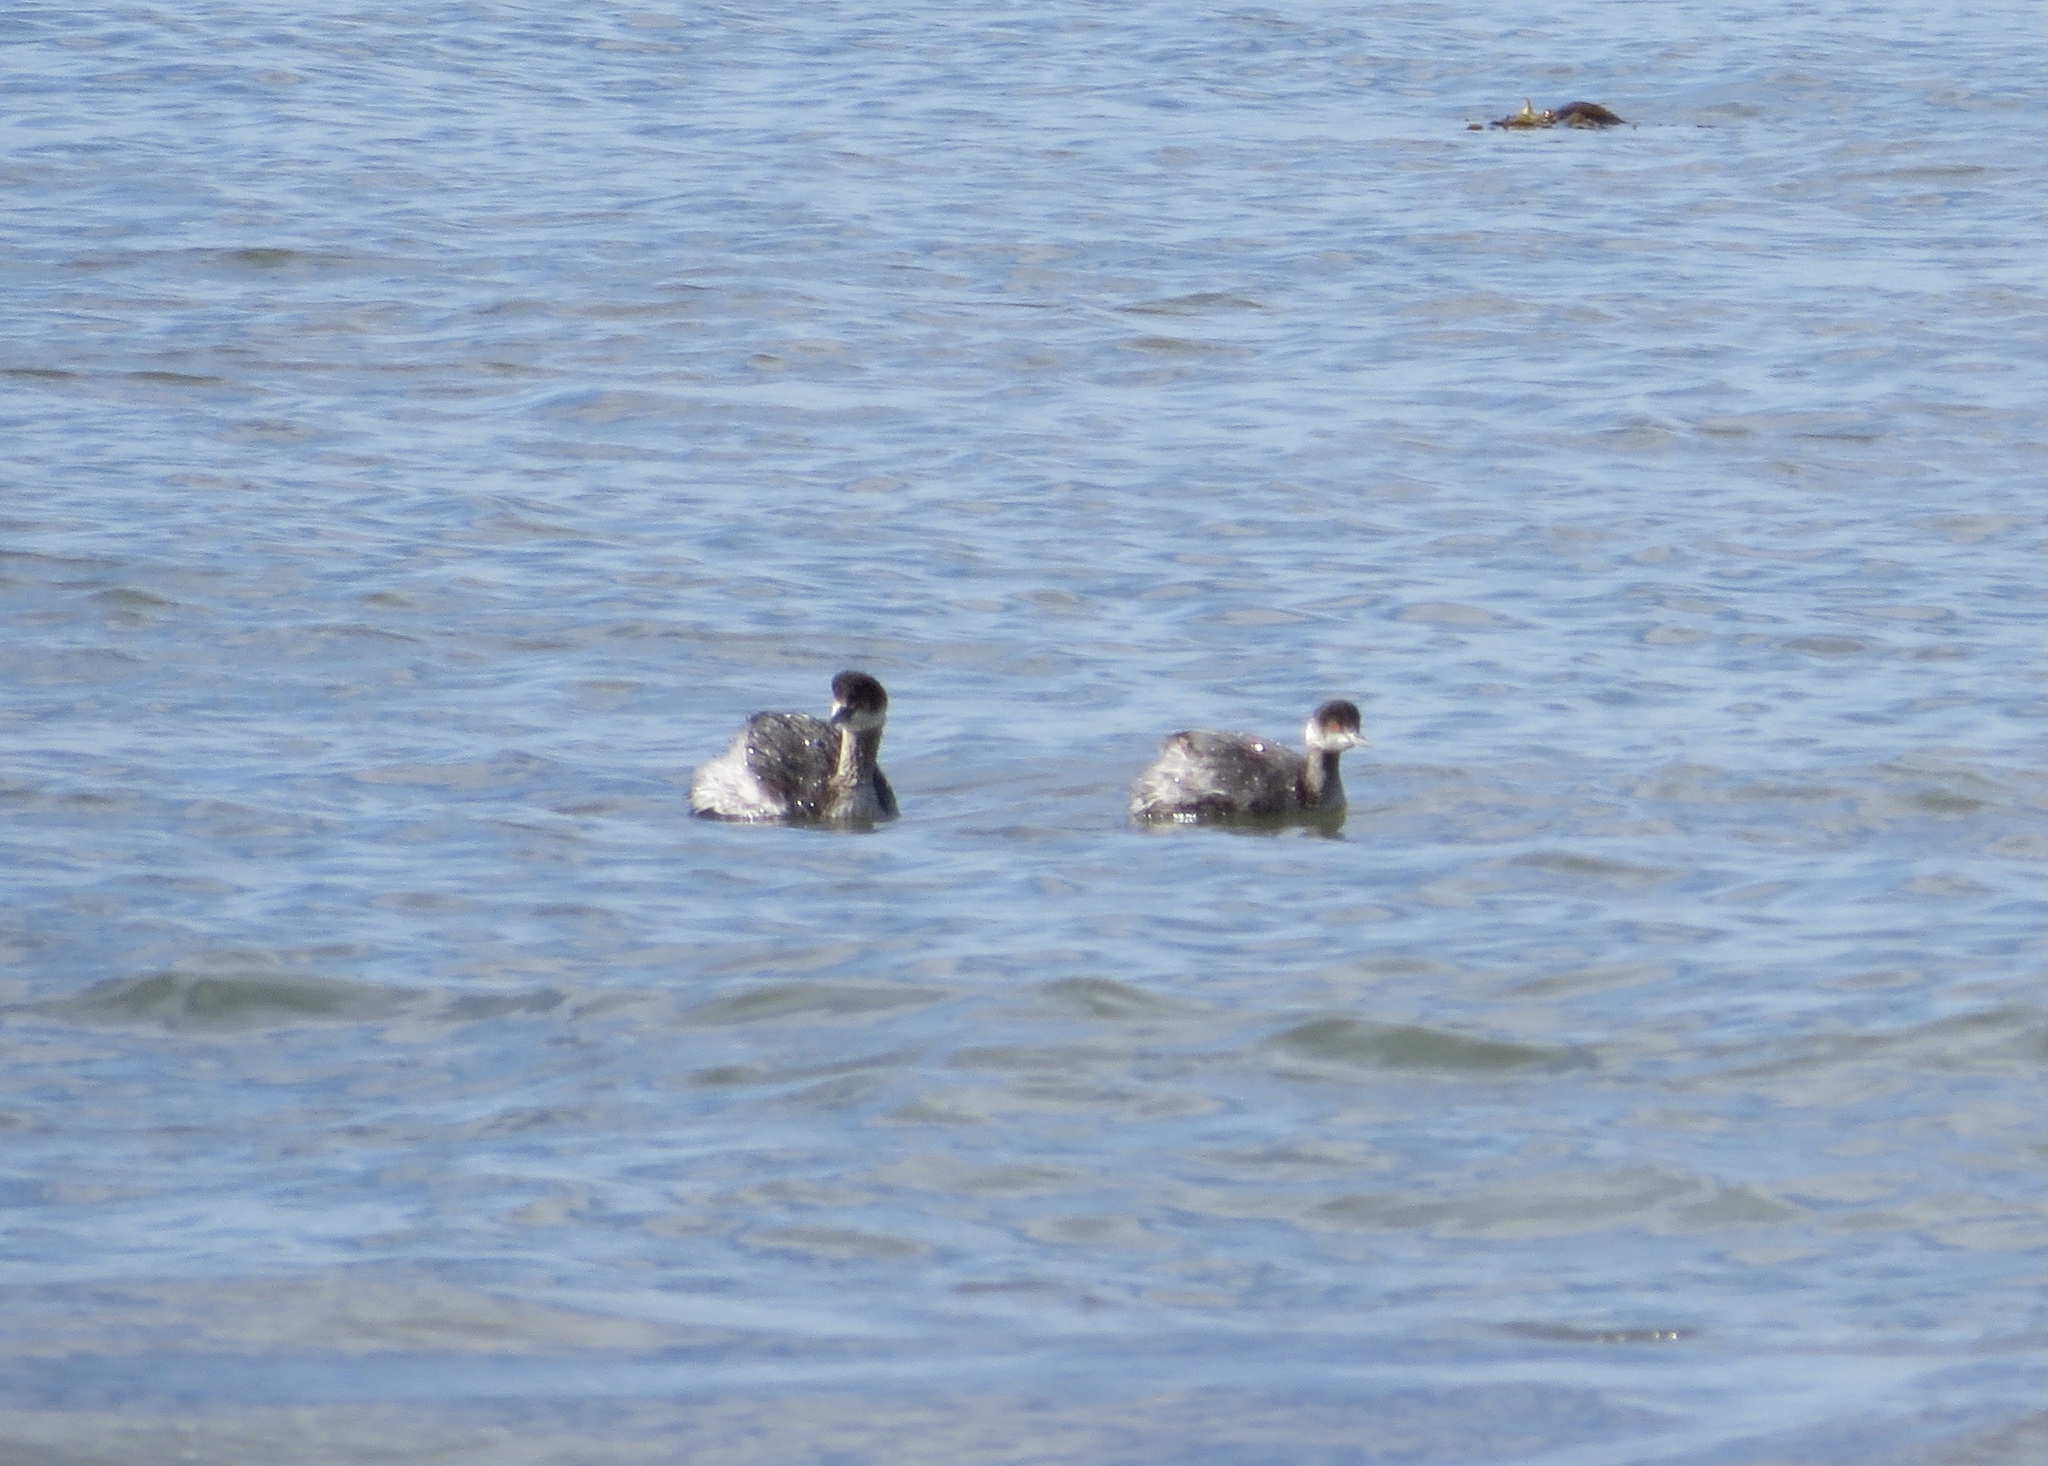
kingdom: Animalia
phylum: Chordata
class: Aves
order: Podicipediformes
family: Podicipedidae
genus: Podiceps
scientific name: Podiceps nigricollis
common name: Black-necked grebe
